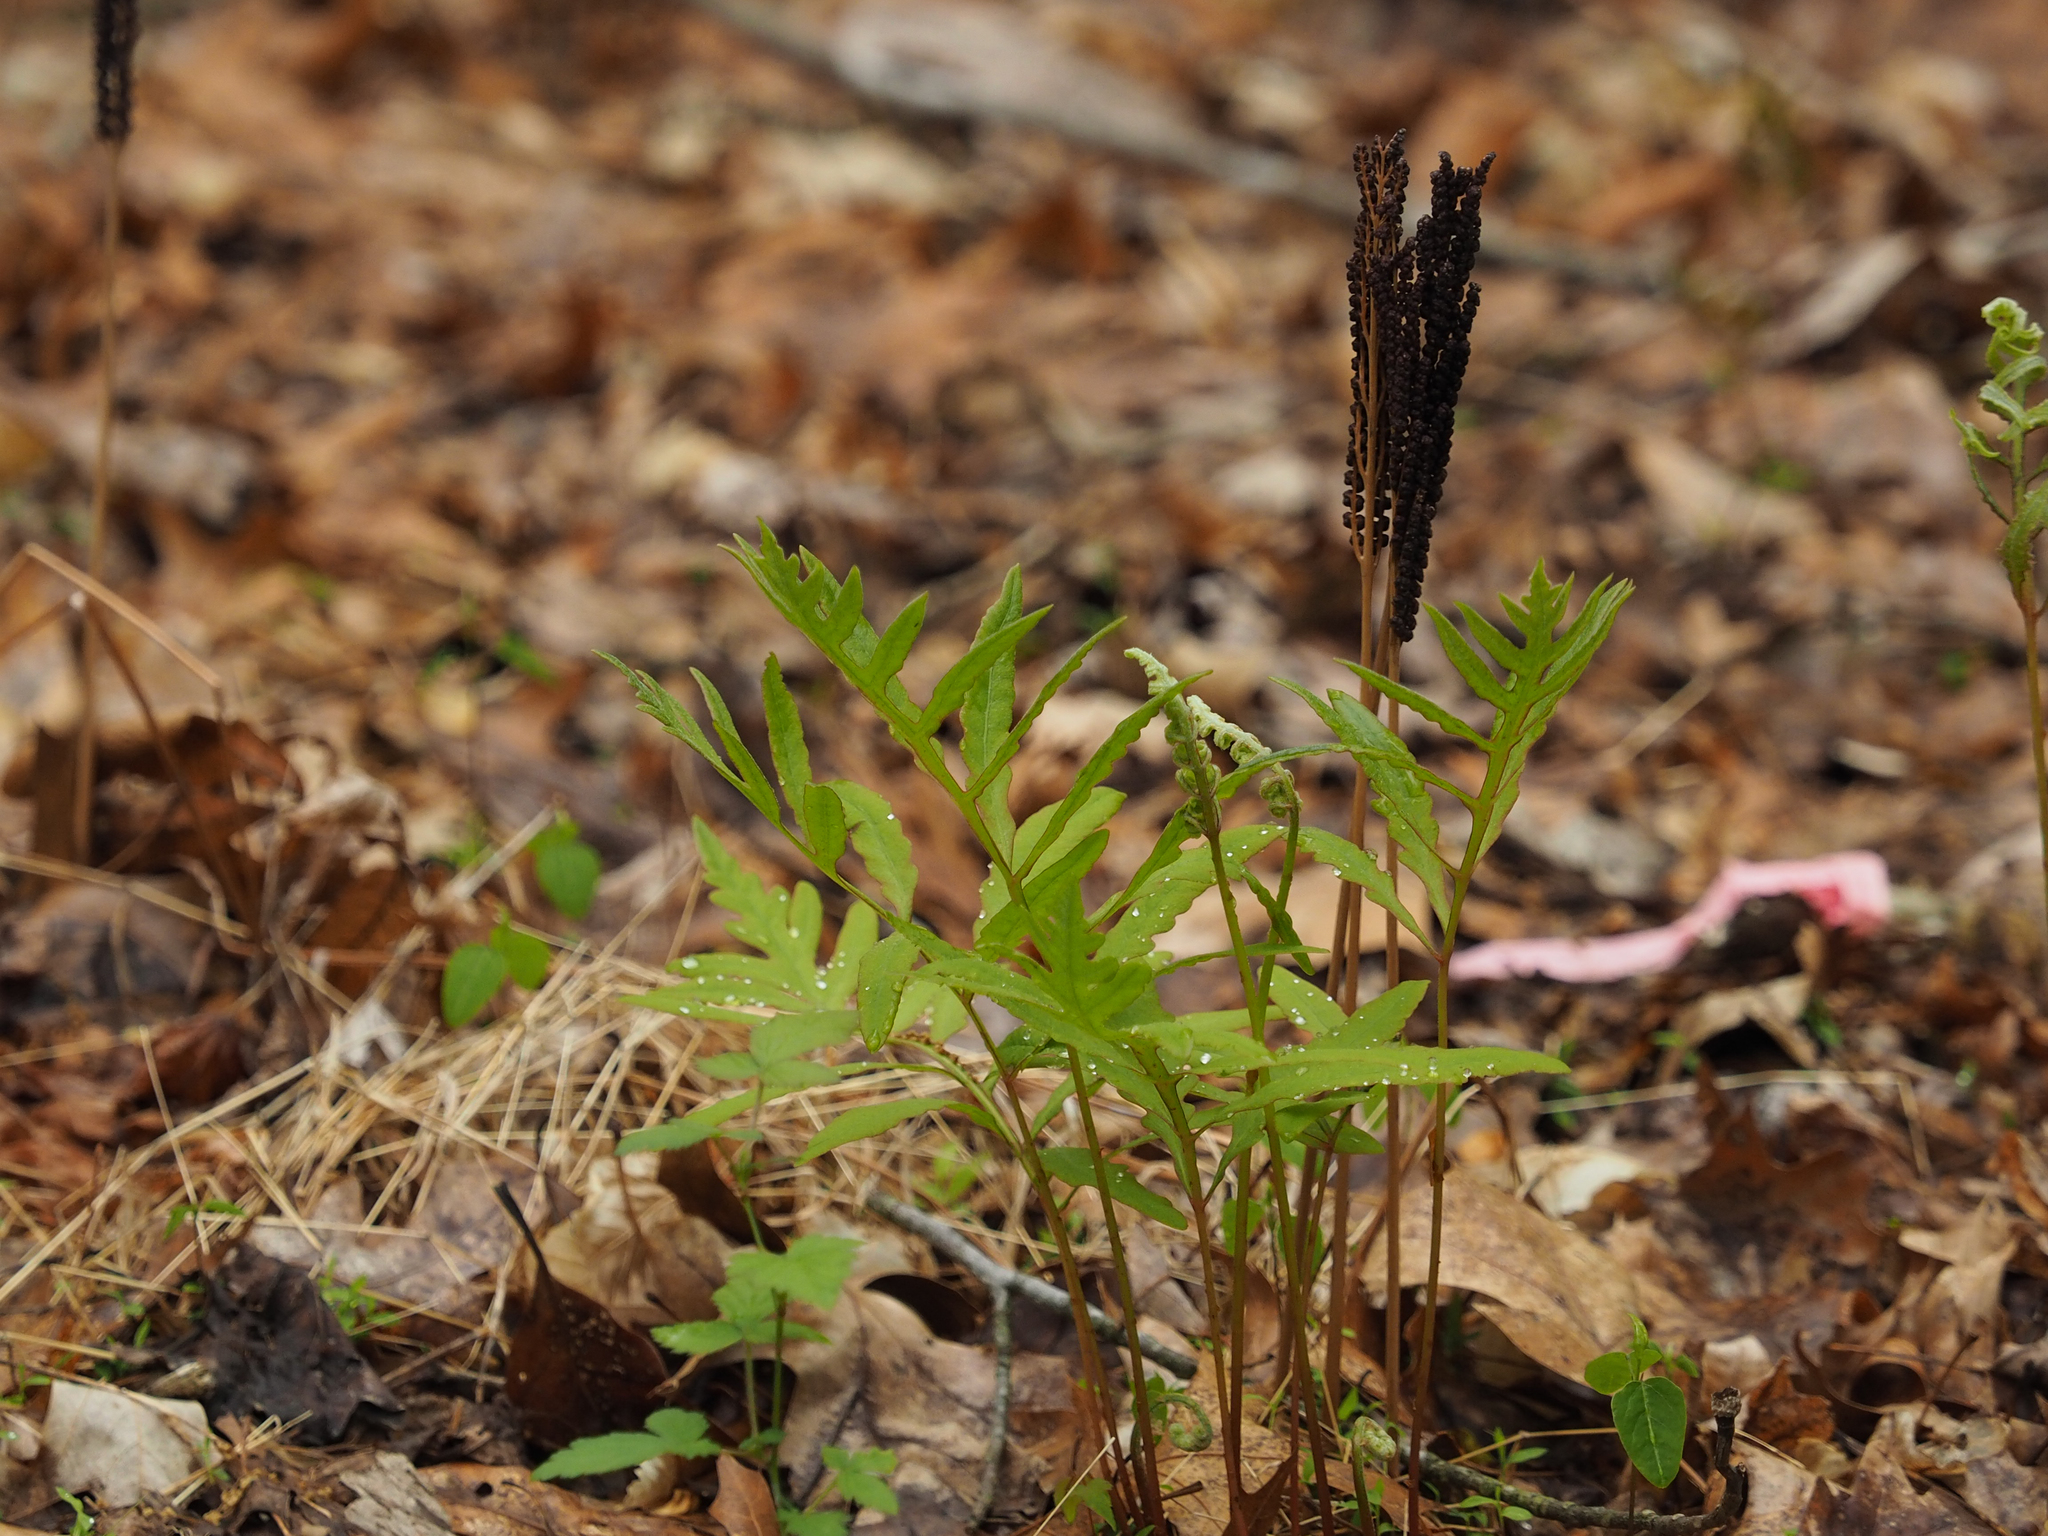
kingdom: Plantae
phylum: Tracheophyta
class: Polypodiopsida
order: Polypodiales
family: Onocleaceae
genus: Onoclea
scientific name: Onoclea sensibilis
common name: Sensitive fern
